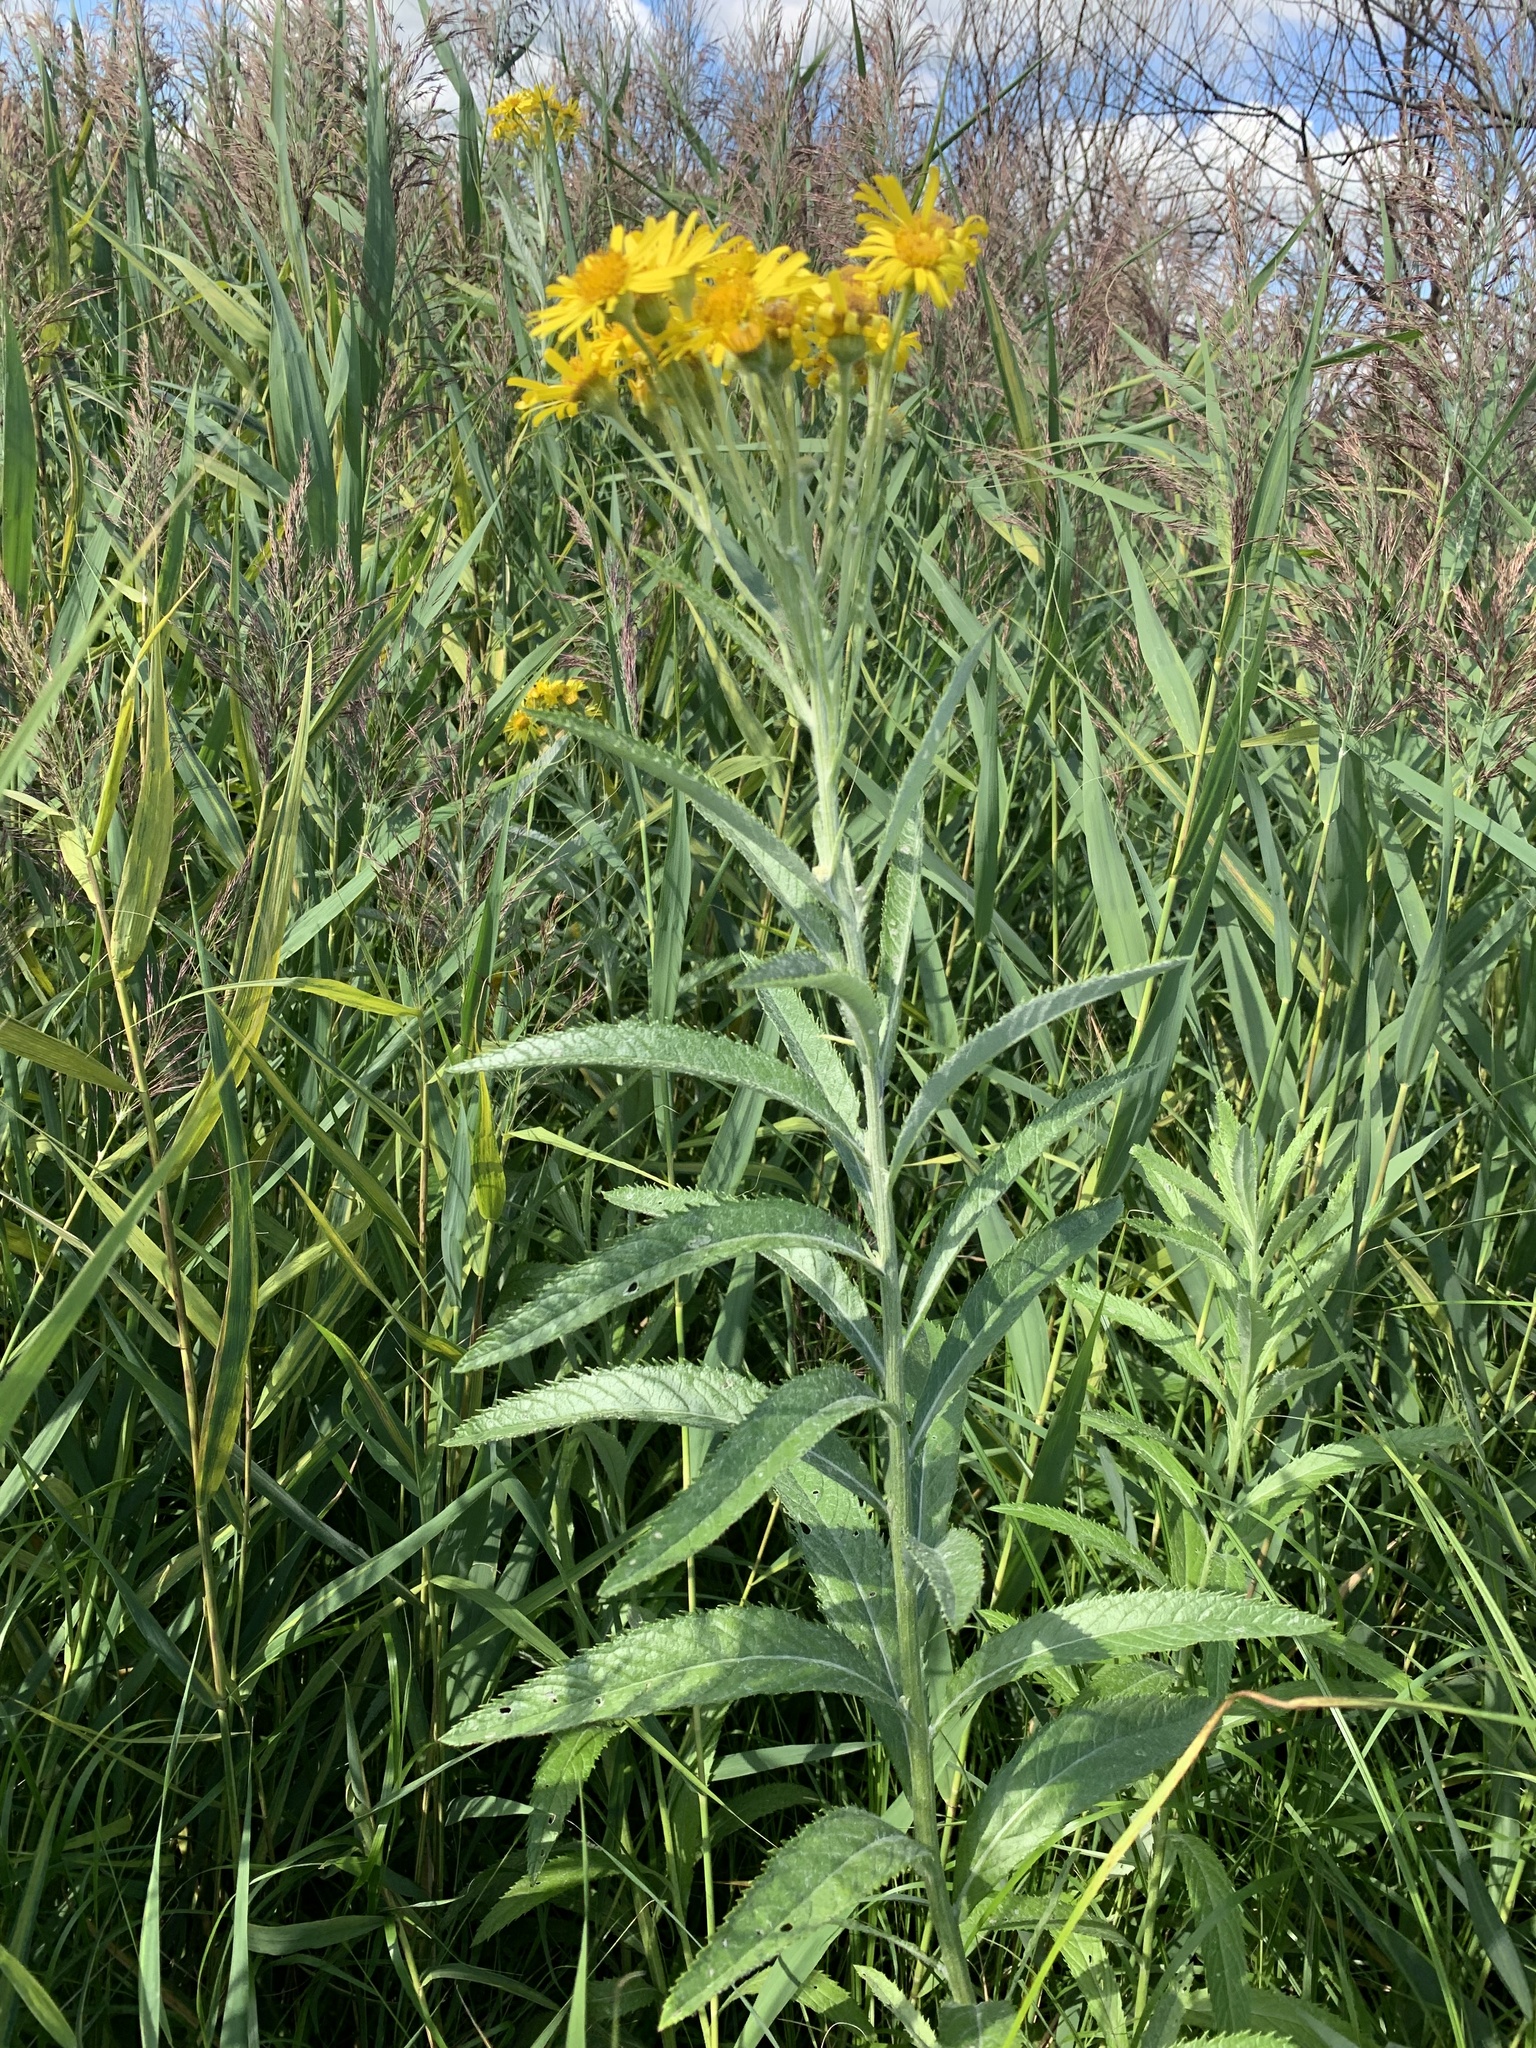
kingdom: Plantae
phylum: Tracheophyta
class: Magnoliopsida
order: Asterales
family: Asteraceae
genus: Jacobaea
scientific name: Jacobaea paludosa
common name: Fen ragwort
